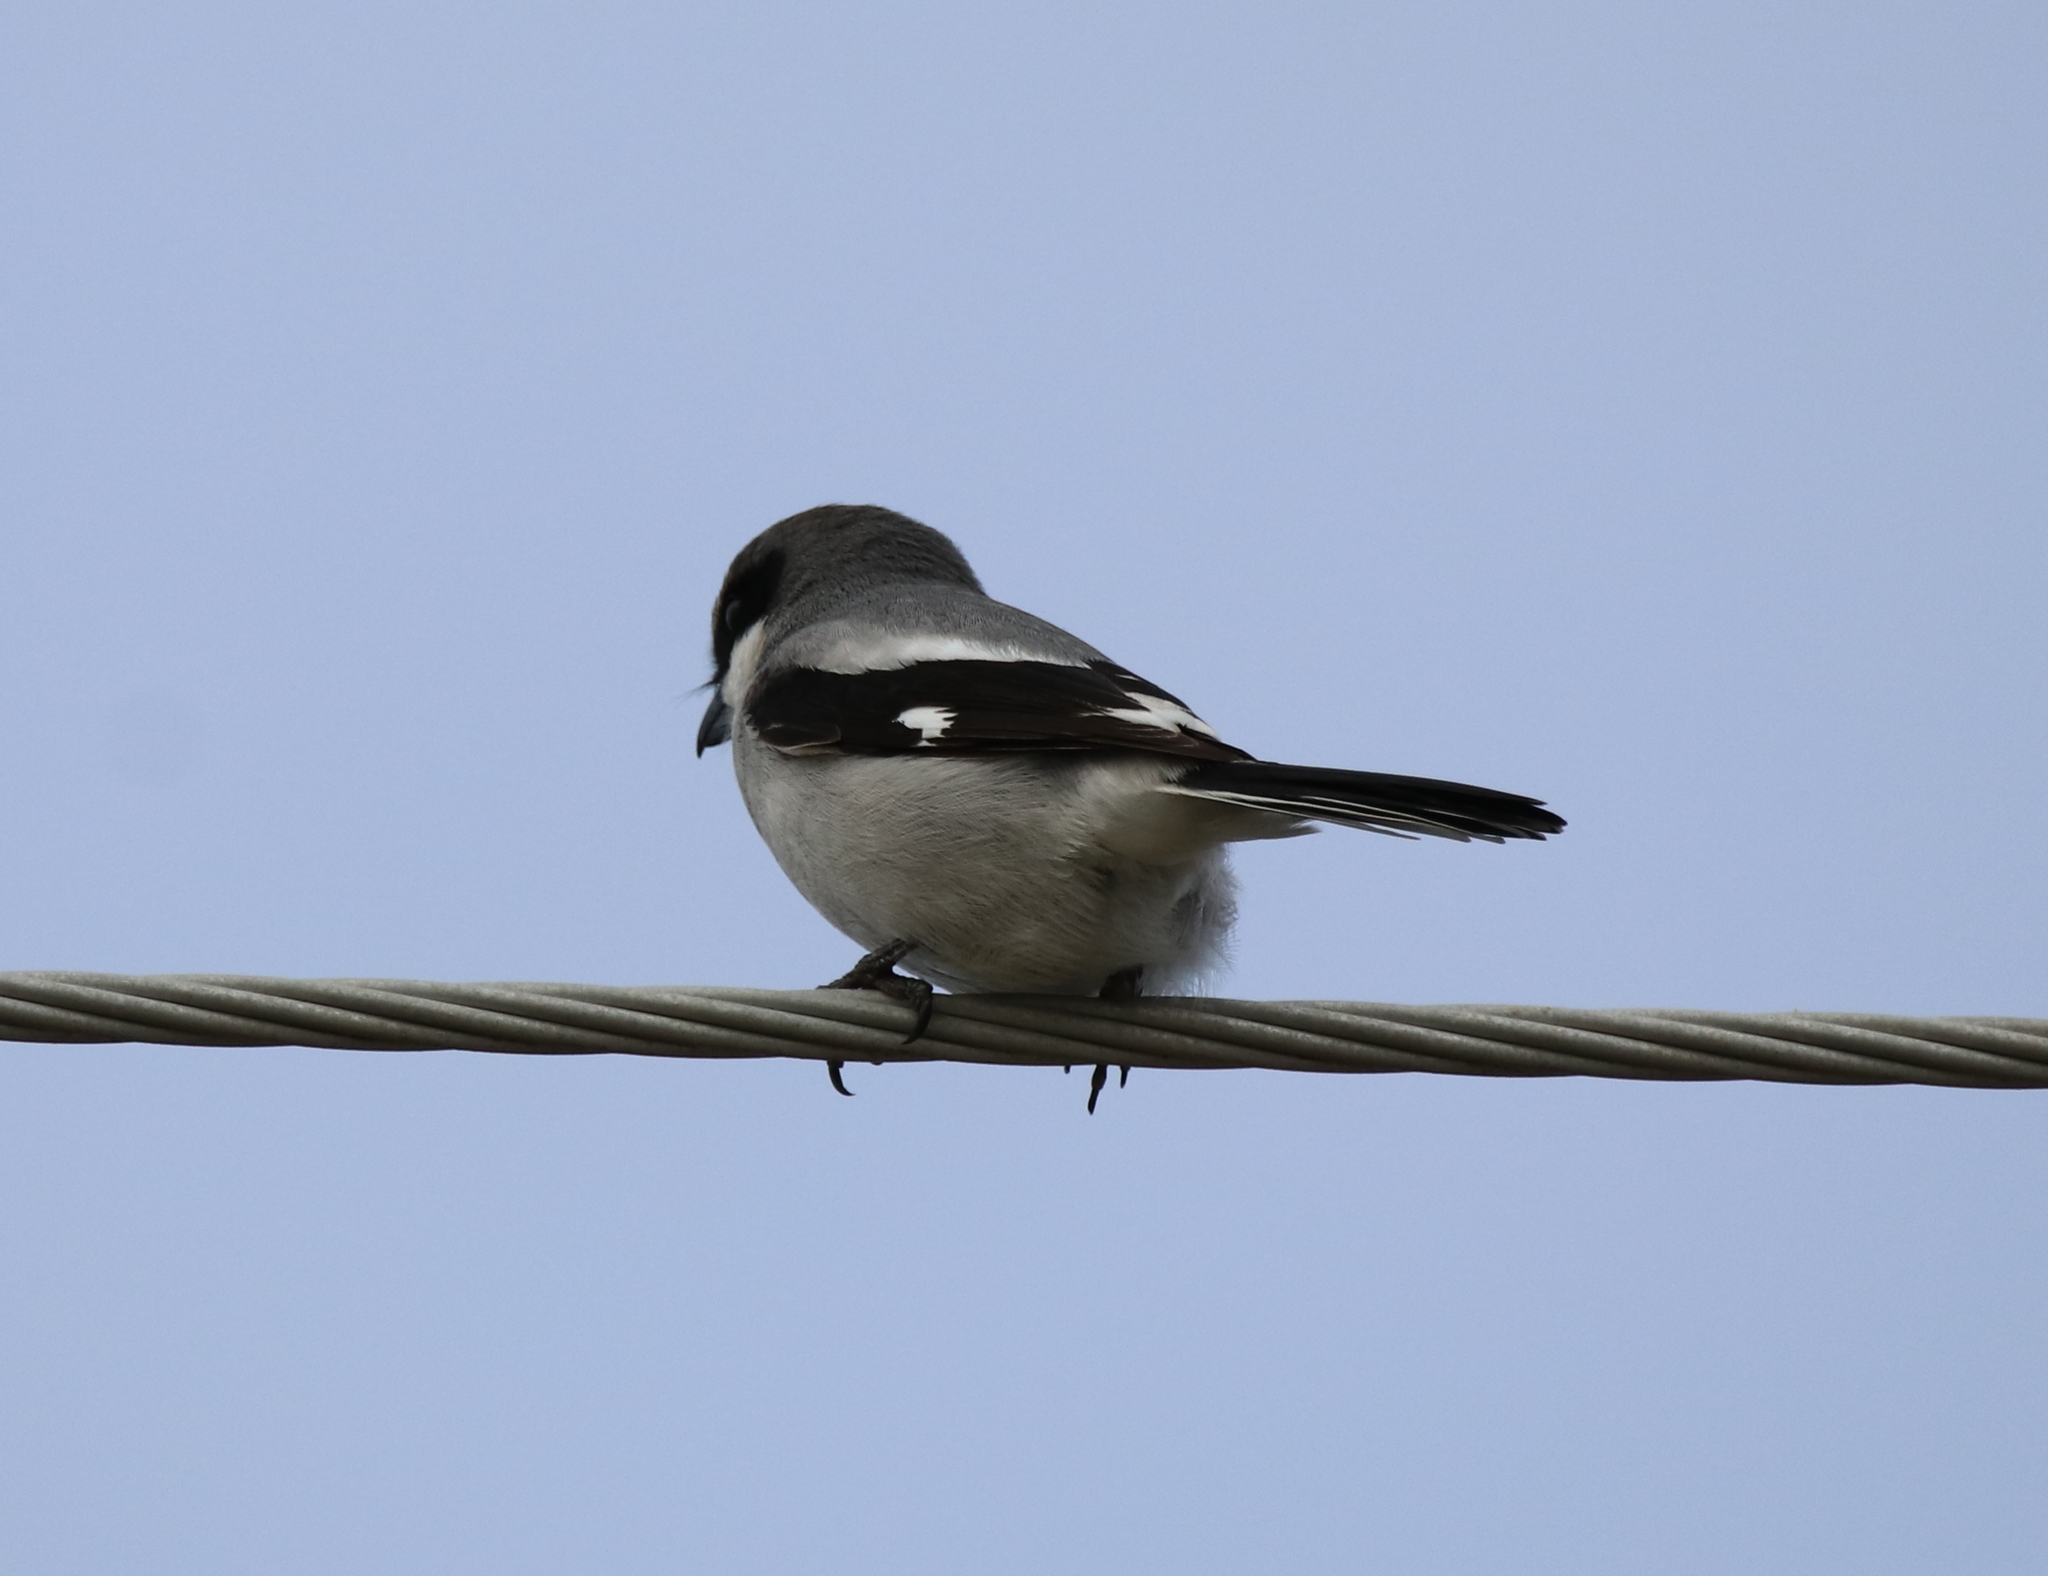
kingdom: Animalia
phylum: Chordata
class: Aves
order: Passeriformes
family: Laniidae
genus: Lanius
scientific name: Lanius ludovicianus
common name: Loggerhead shrike
